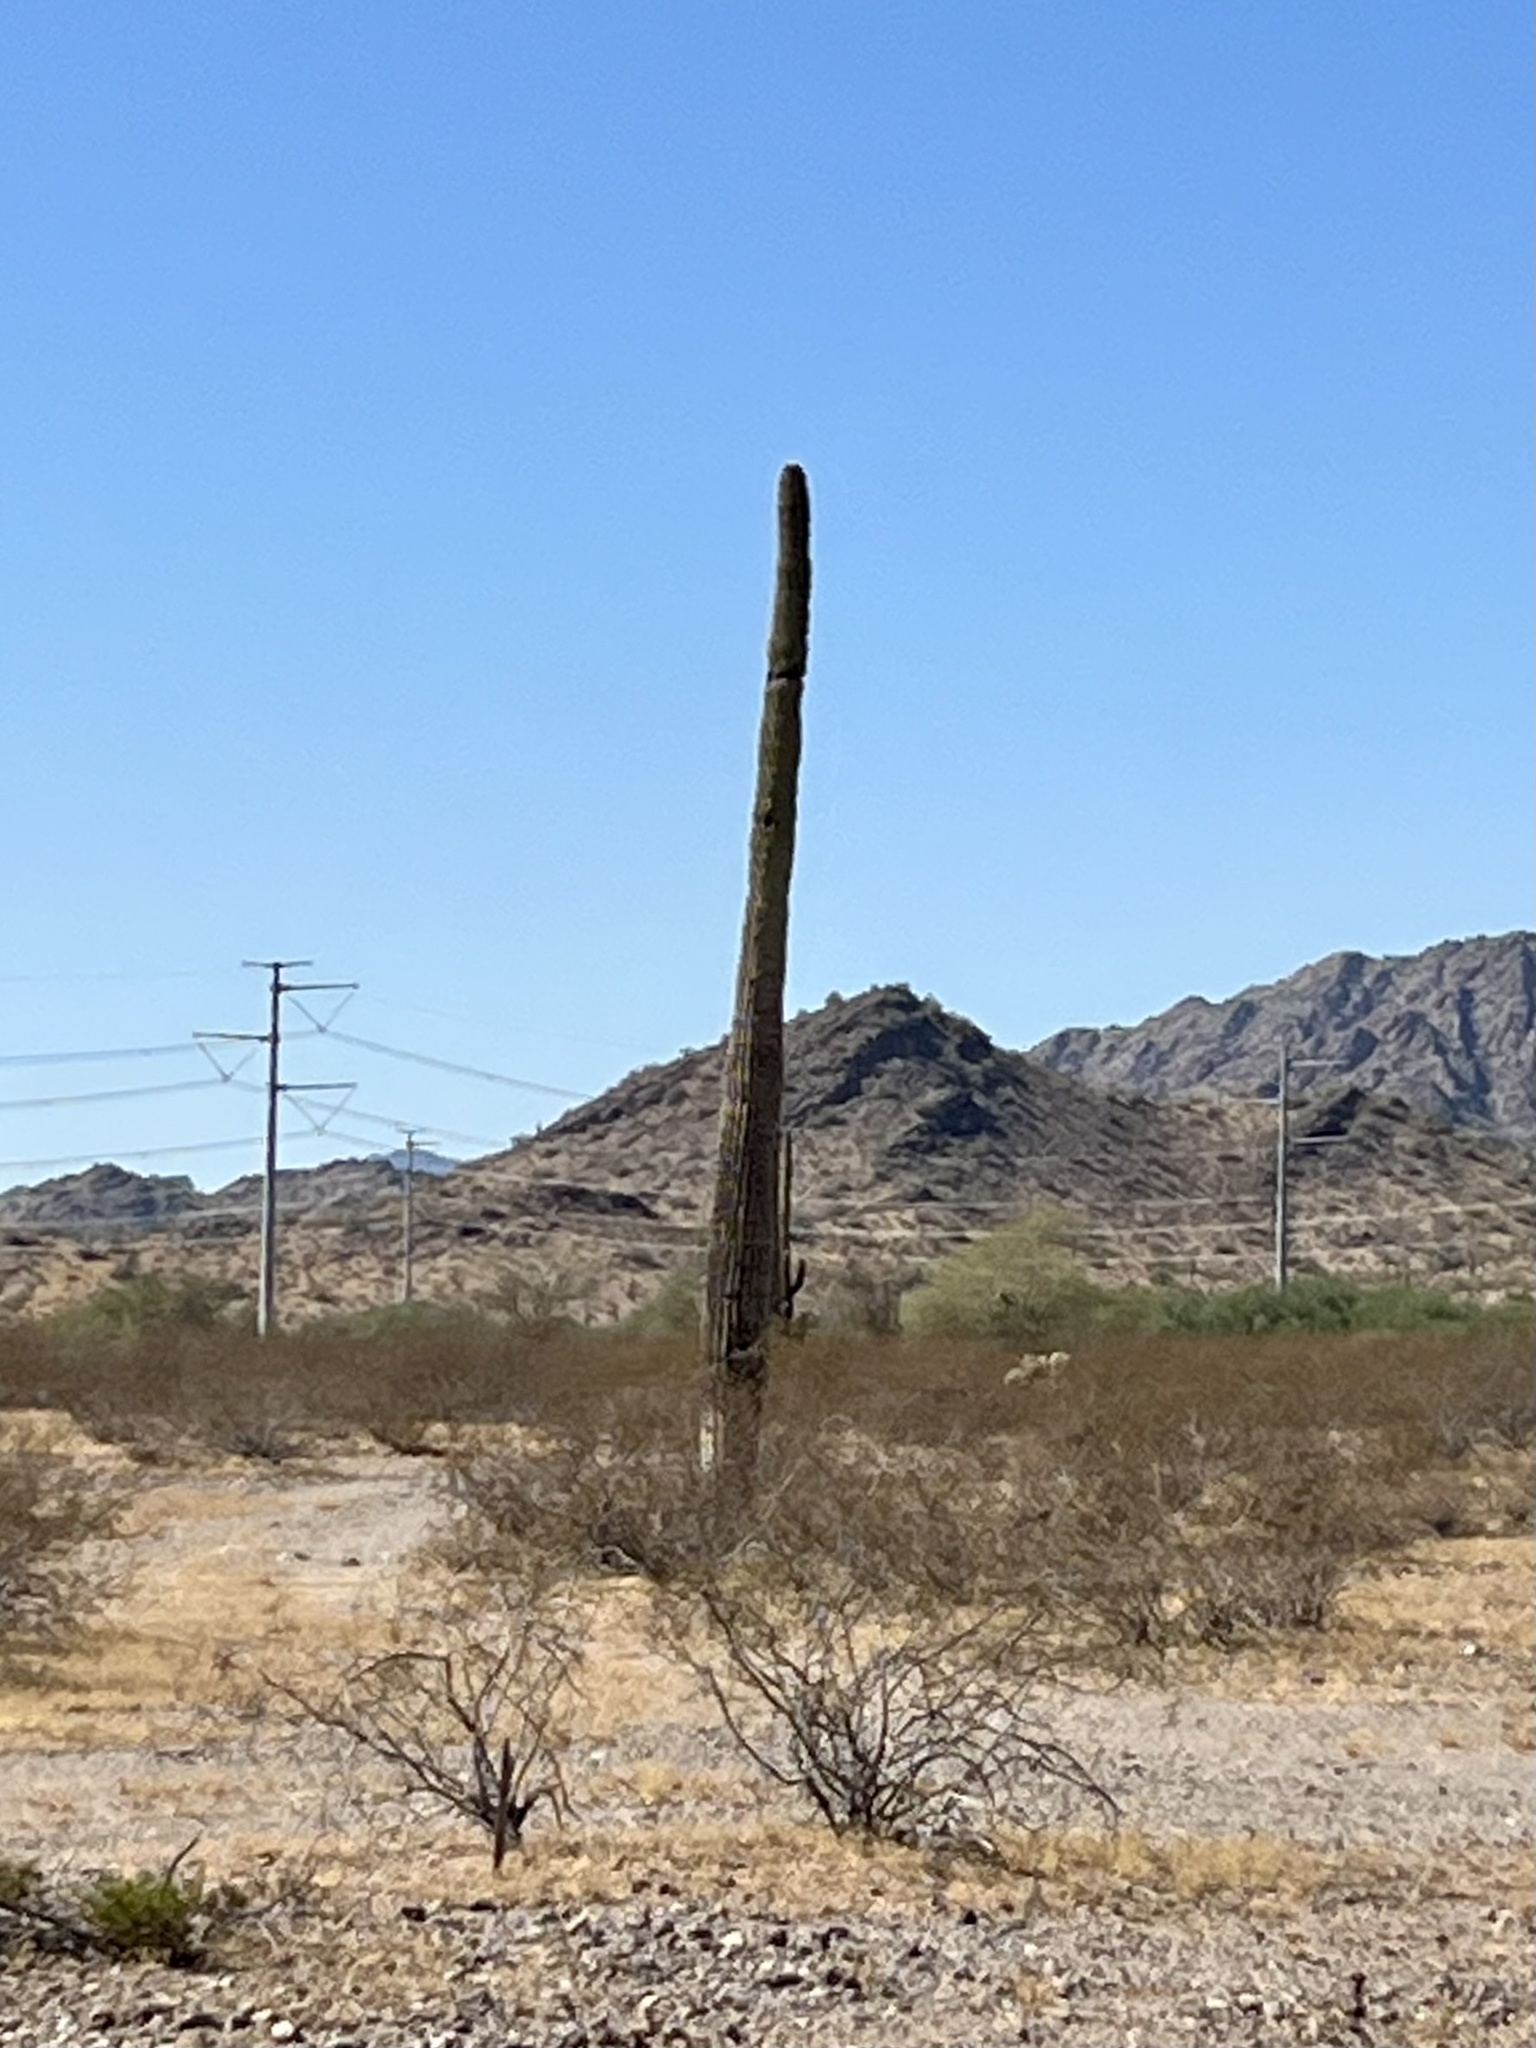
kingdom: Plantae
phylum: Tracheophyta
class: Magnoliopsida
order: Caryophyllales
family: Cactaceae
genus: Carnegiea
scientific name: Carnegiea gigantea
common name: Saguaro
